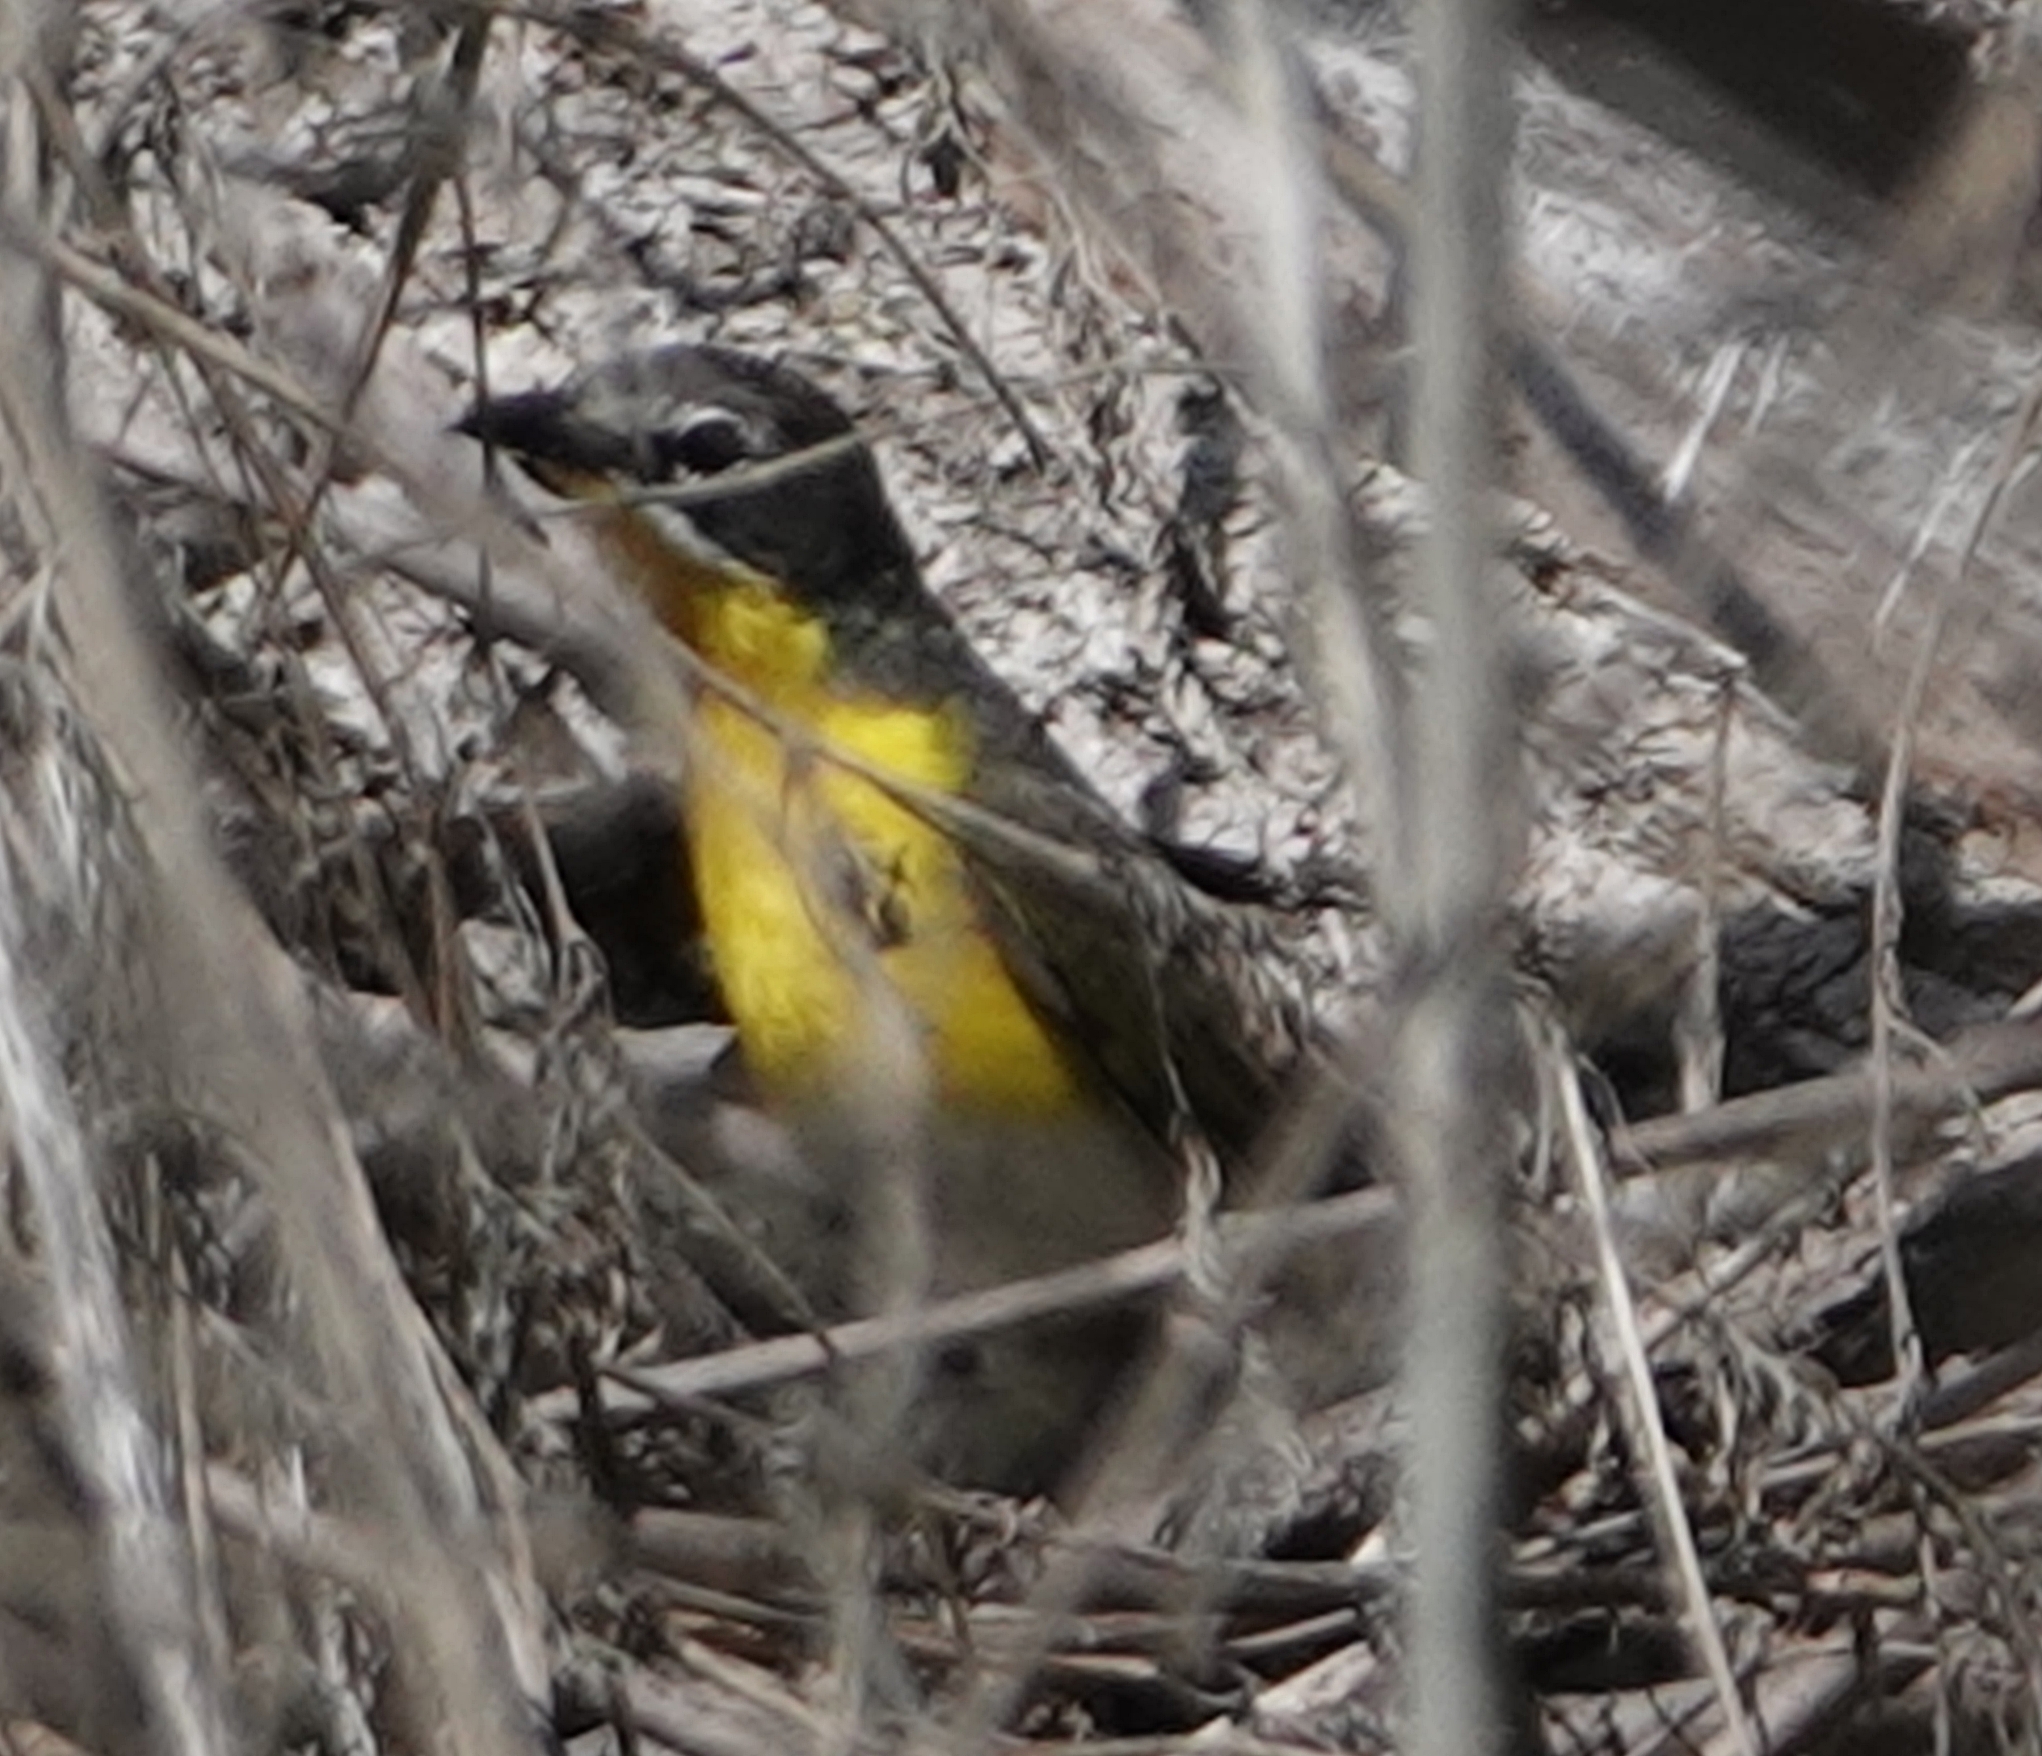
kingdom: Animalia
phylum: Chordata
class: Aves
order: Passeriformes
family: Parulidae
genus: Icteria
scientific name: Icteria virens
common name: Yellow-breasted chat
